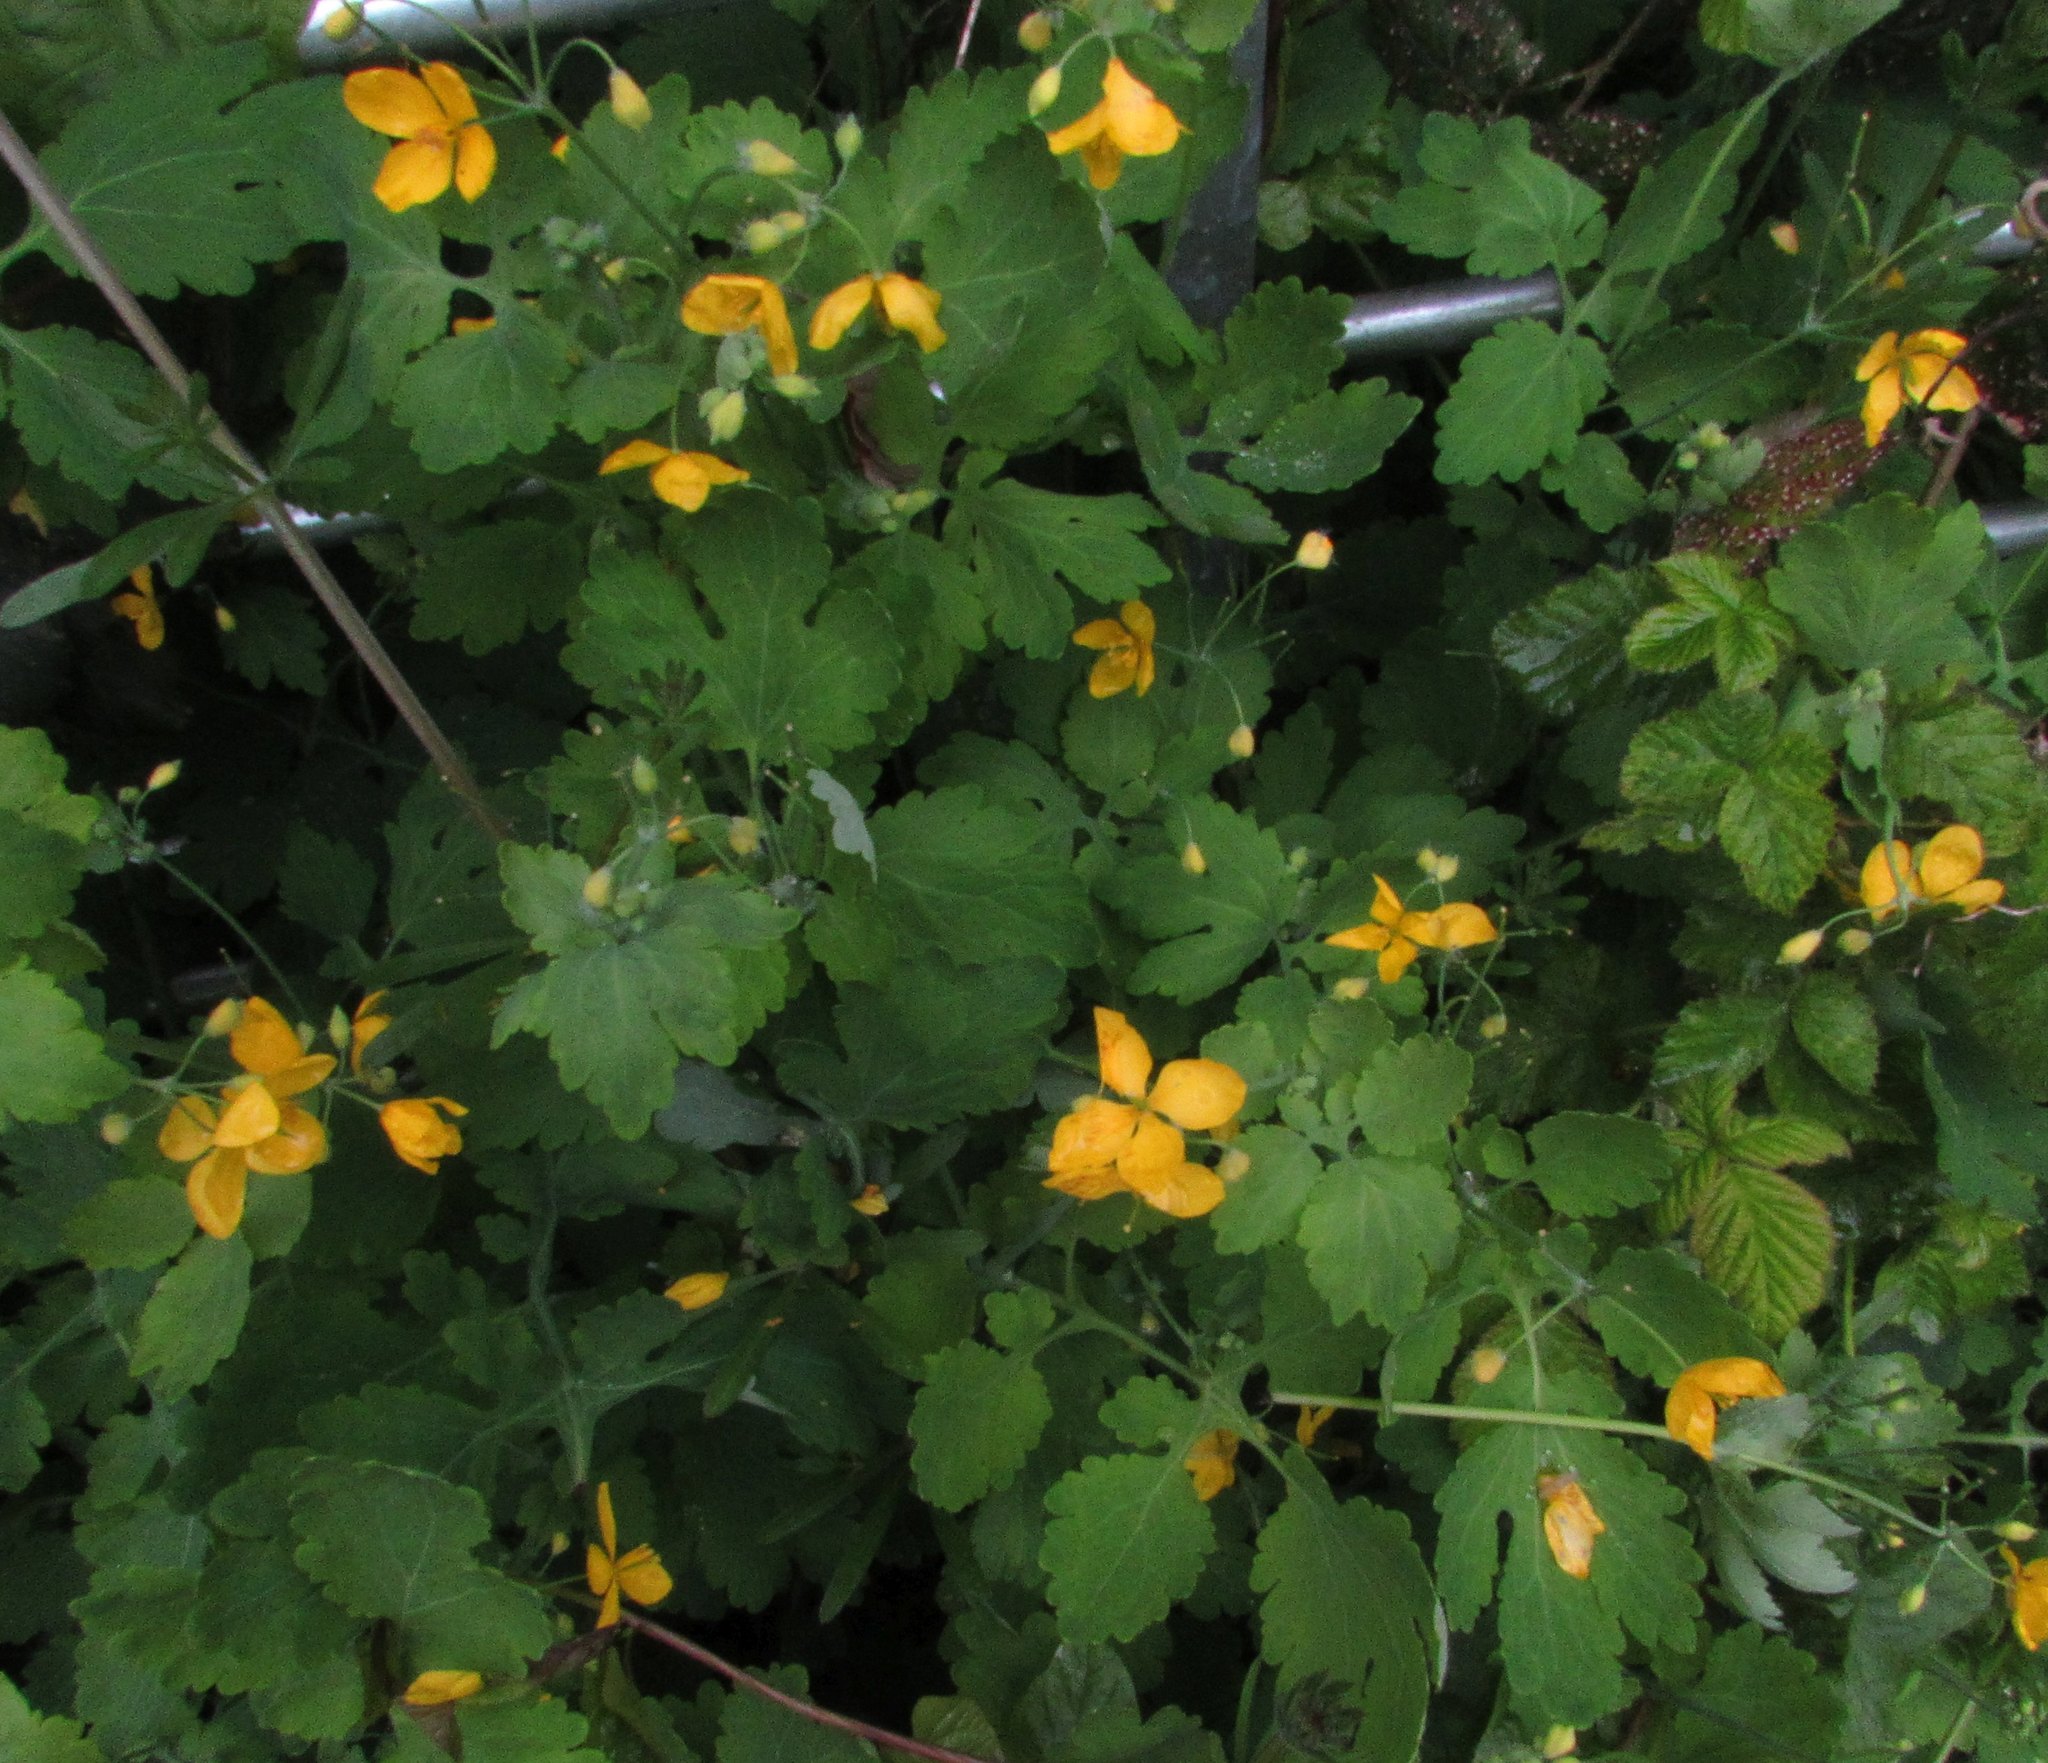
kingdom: Plantae
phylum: Tracheophyta
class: Magnoliopsida
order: Ranunculales
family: Papaveraceae
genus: Chelidonium
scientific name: Chelidonium majus
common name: Greater celandine
